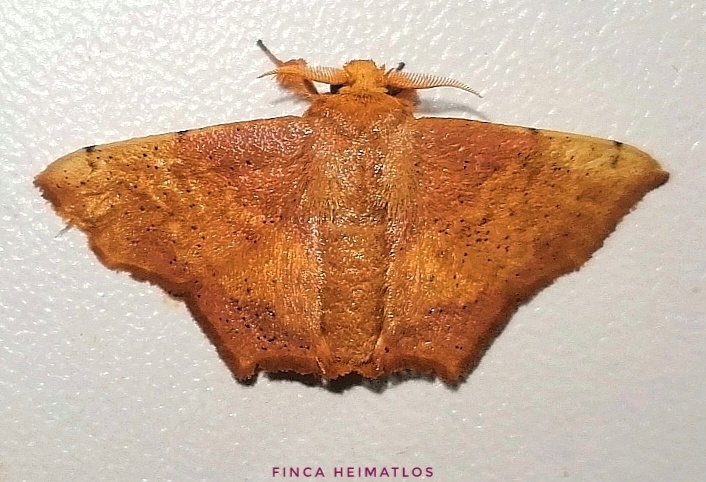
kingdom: Animalia
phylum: Arthropoda
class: Insecta
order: Lepidoptera
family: Mimallonidae
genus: Zaphanta
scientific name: Zaphanta rawlinsi
